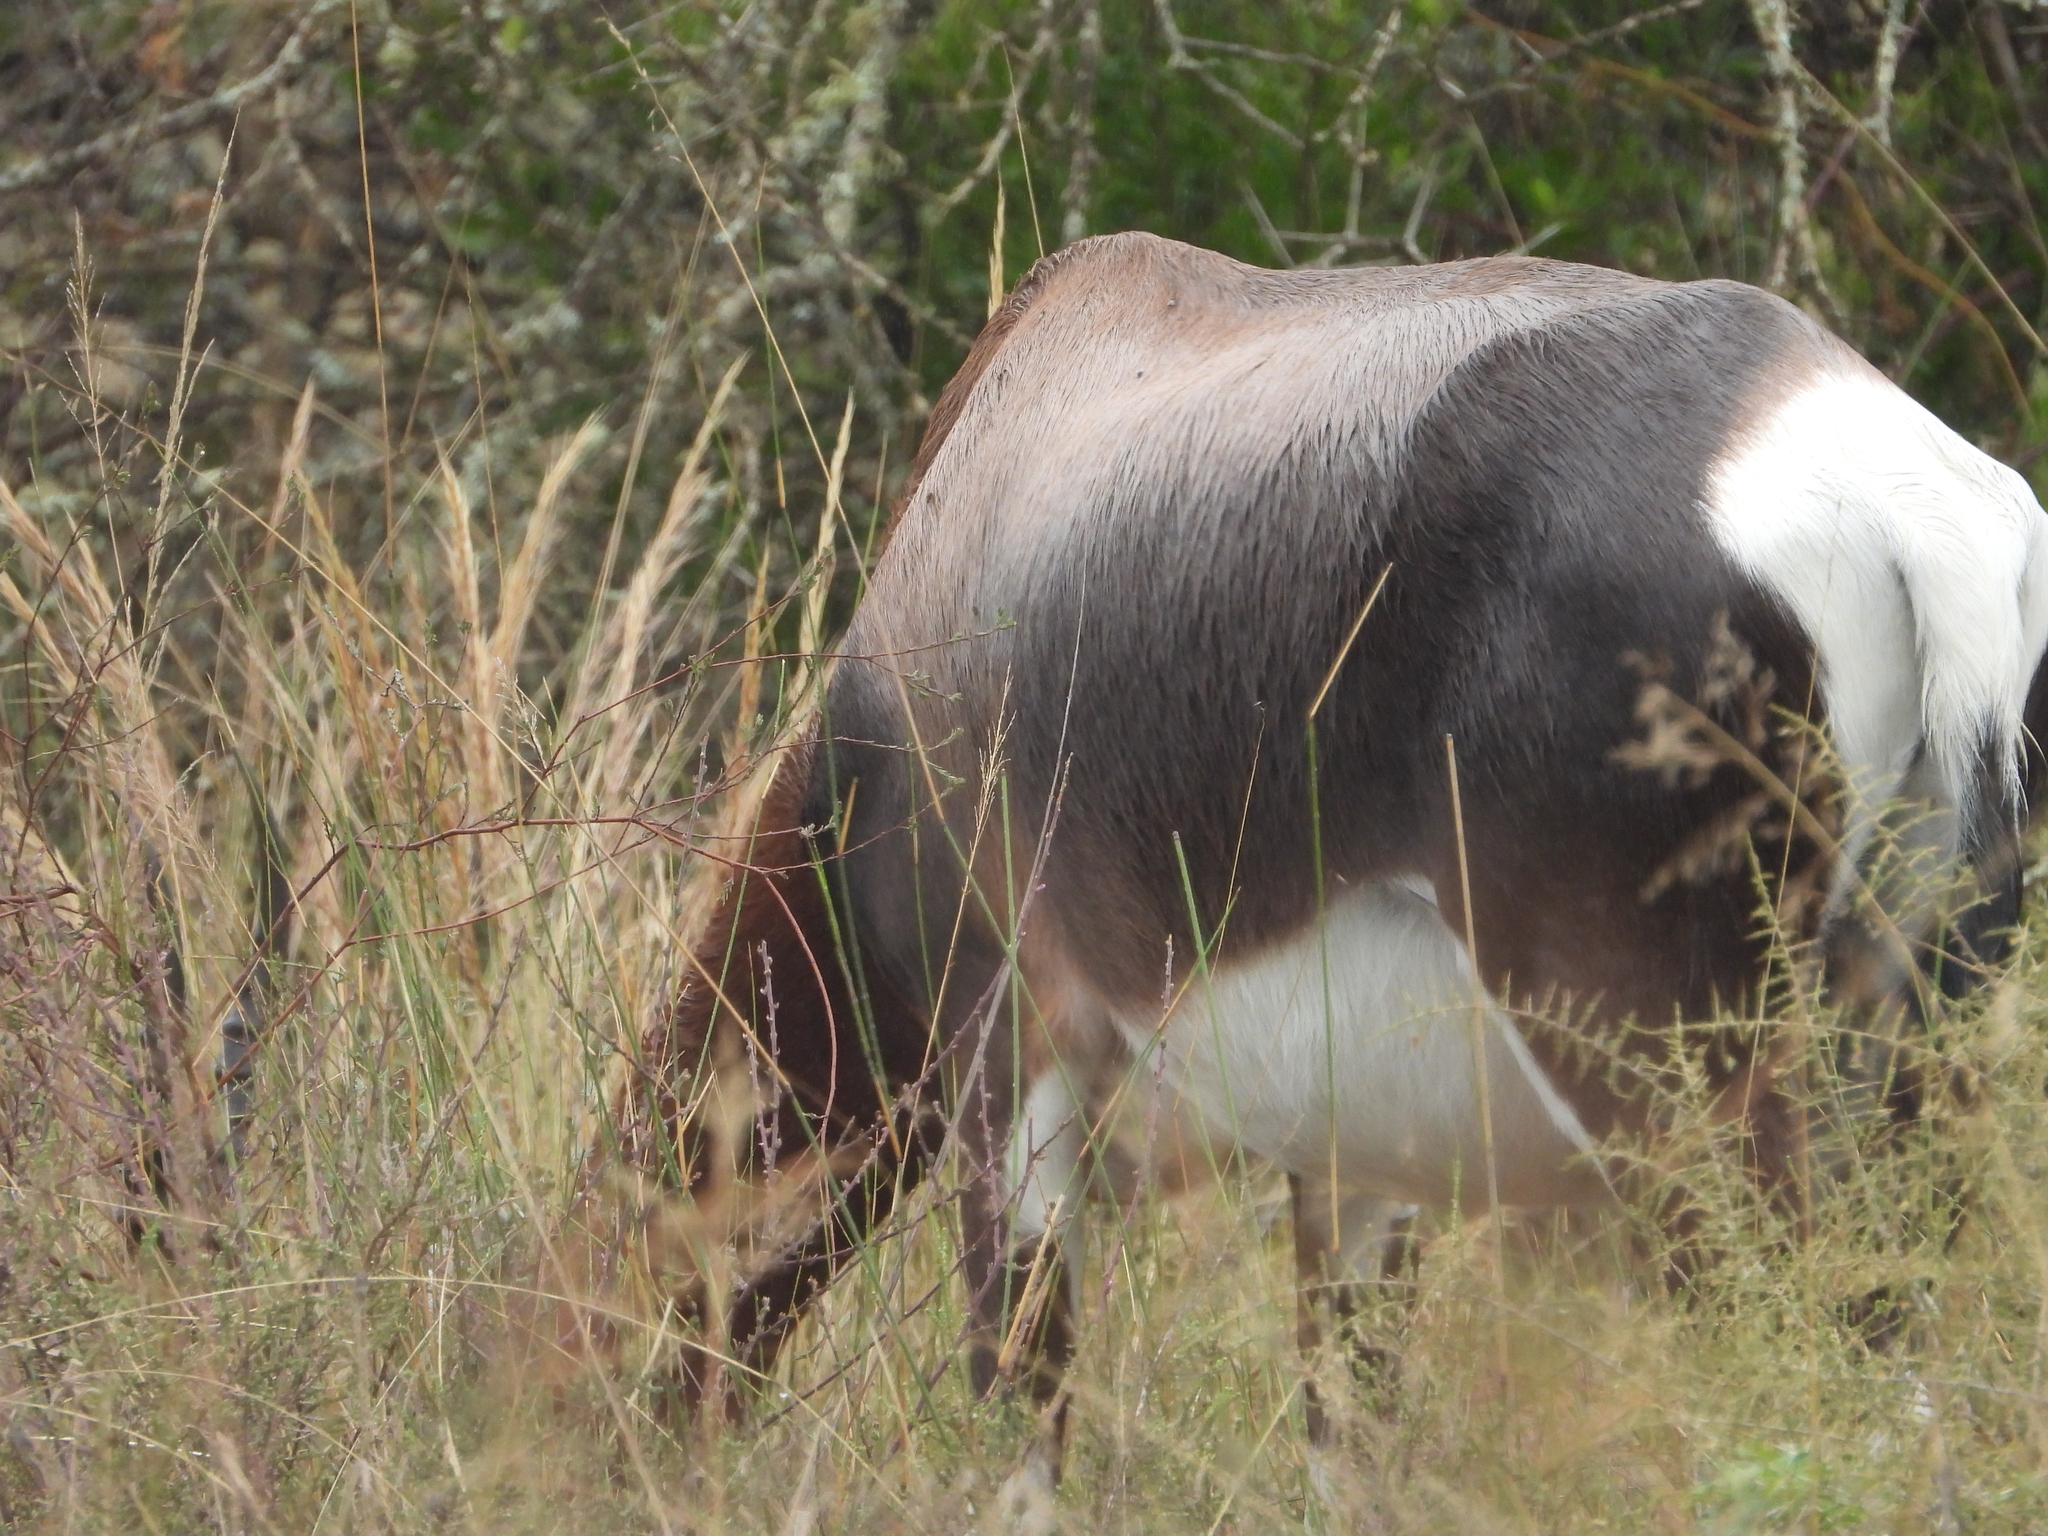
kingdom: Animalia
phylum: Chordata
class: Mammalia
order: Artiodactyla
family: Bovidae
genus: Damaliscus
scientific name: Damaliscus pygargus
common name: Bontebok
